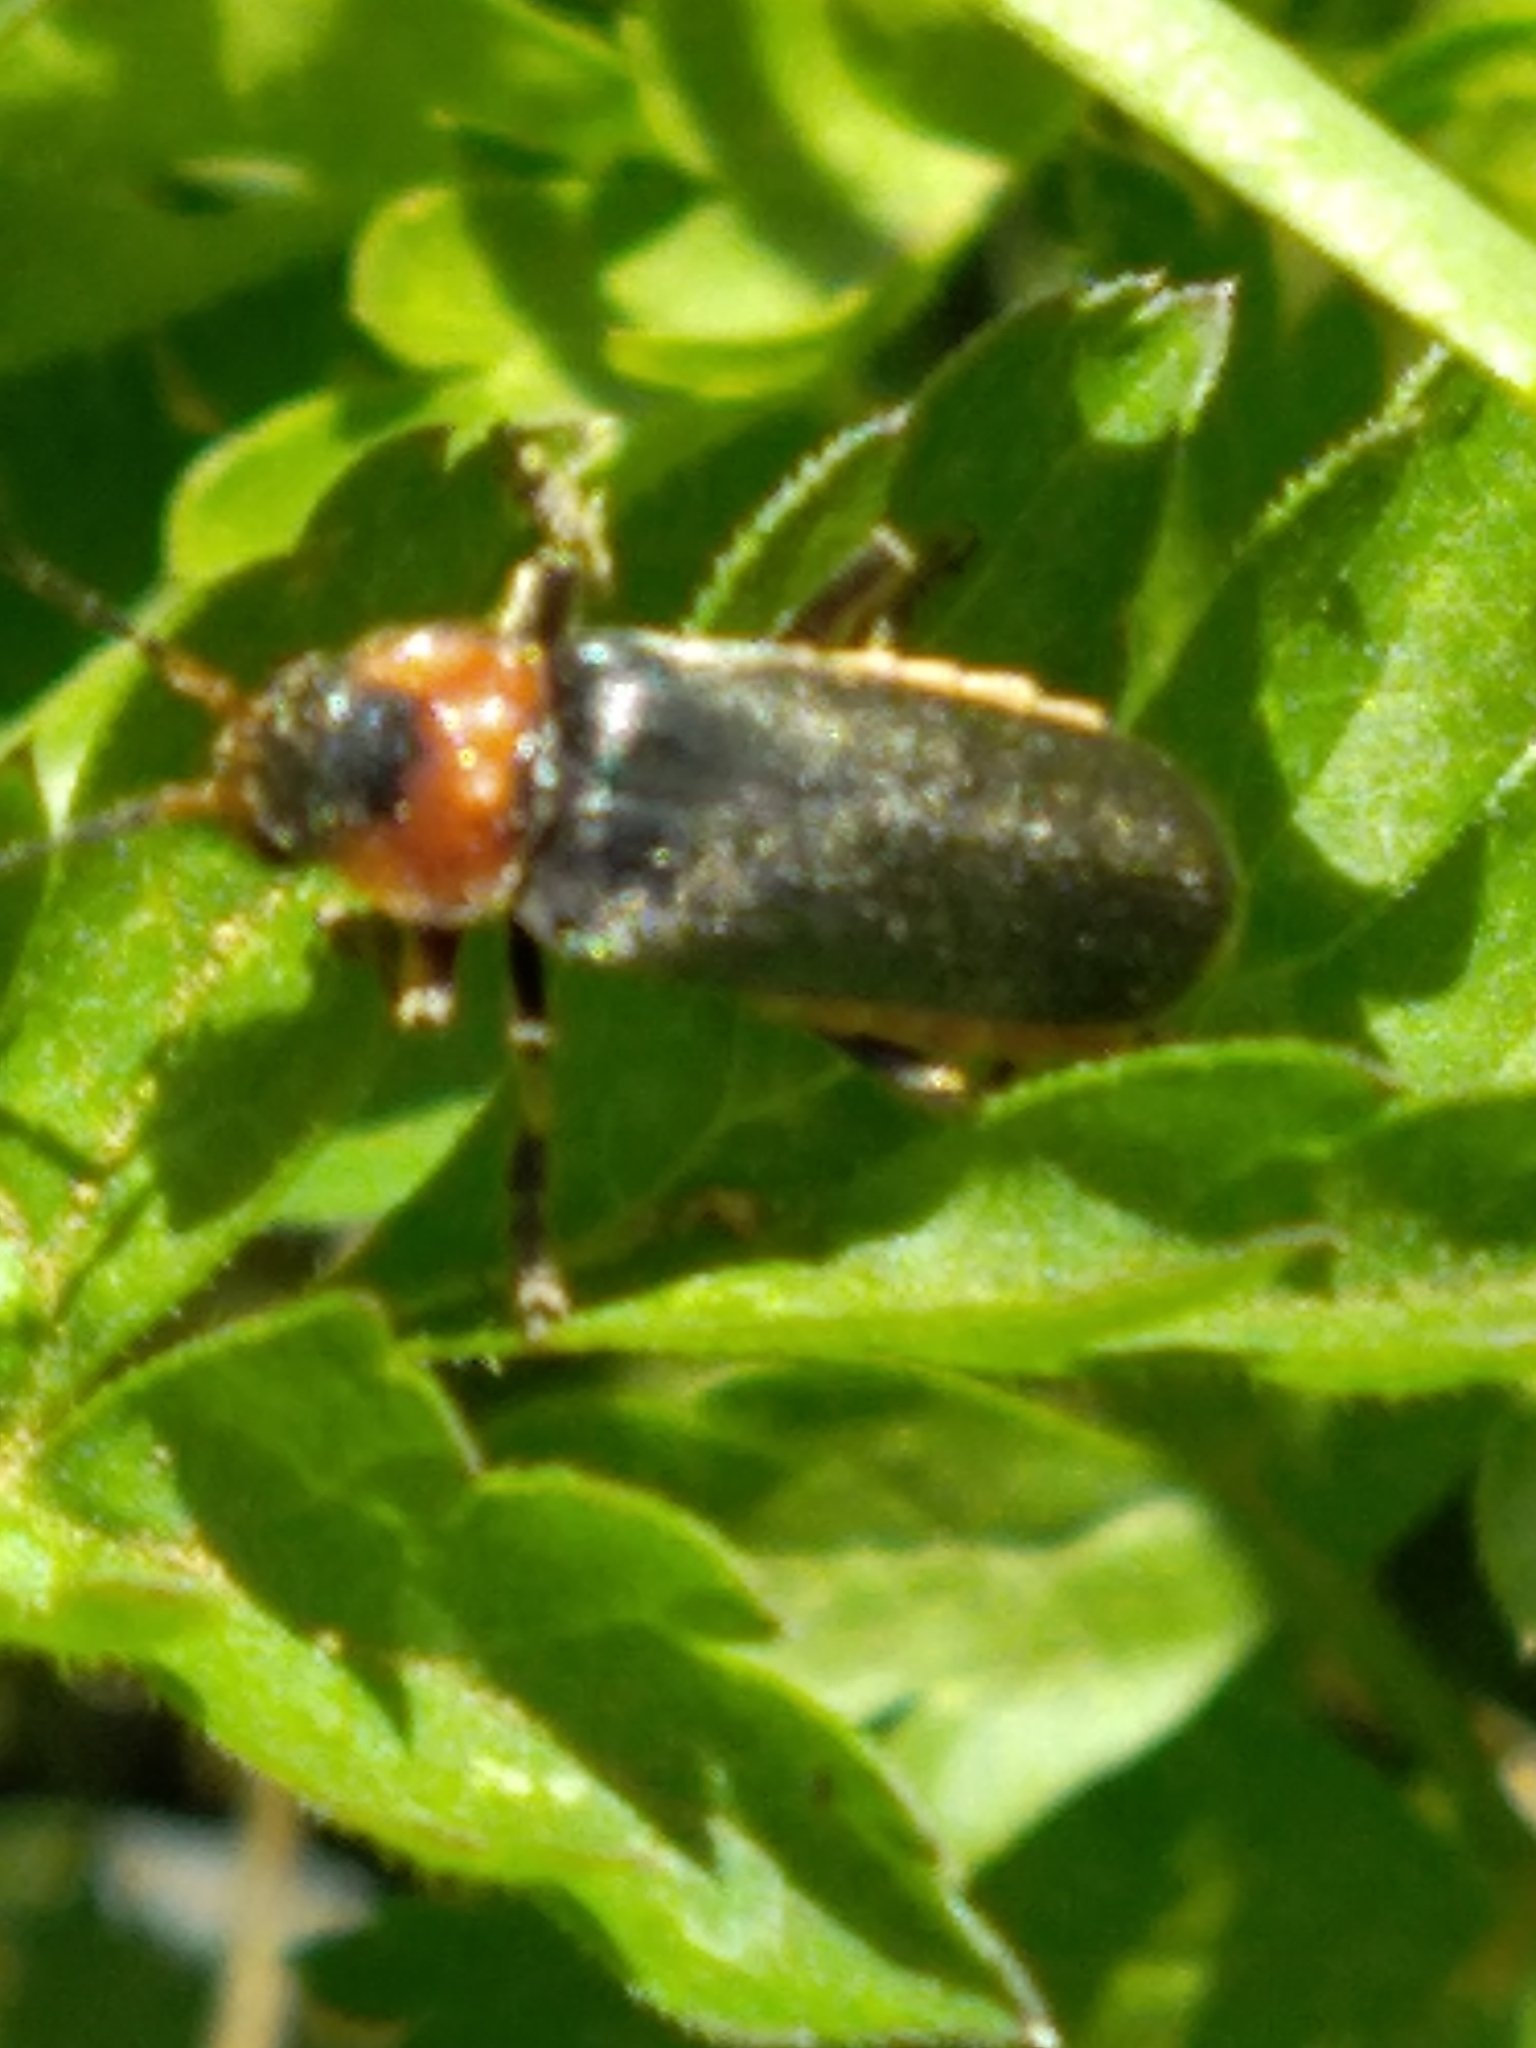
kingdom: Animalia
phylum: Arthropoda
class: Insecta
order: Coleoptera
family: Cantharidae
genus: Cantharis
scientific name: Cantharis fusca
